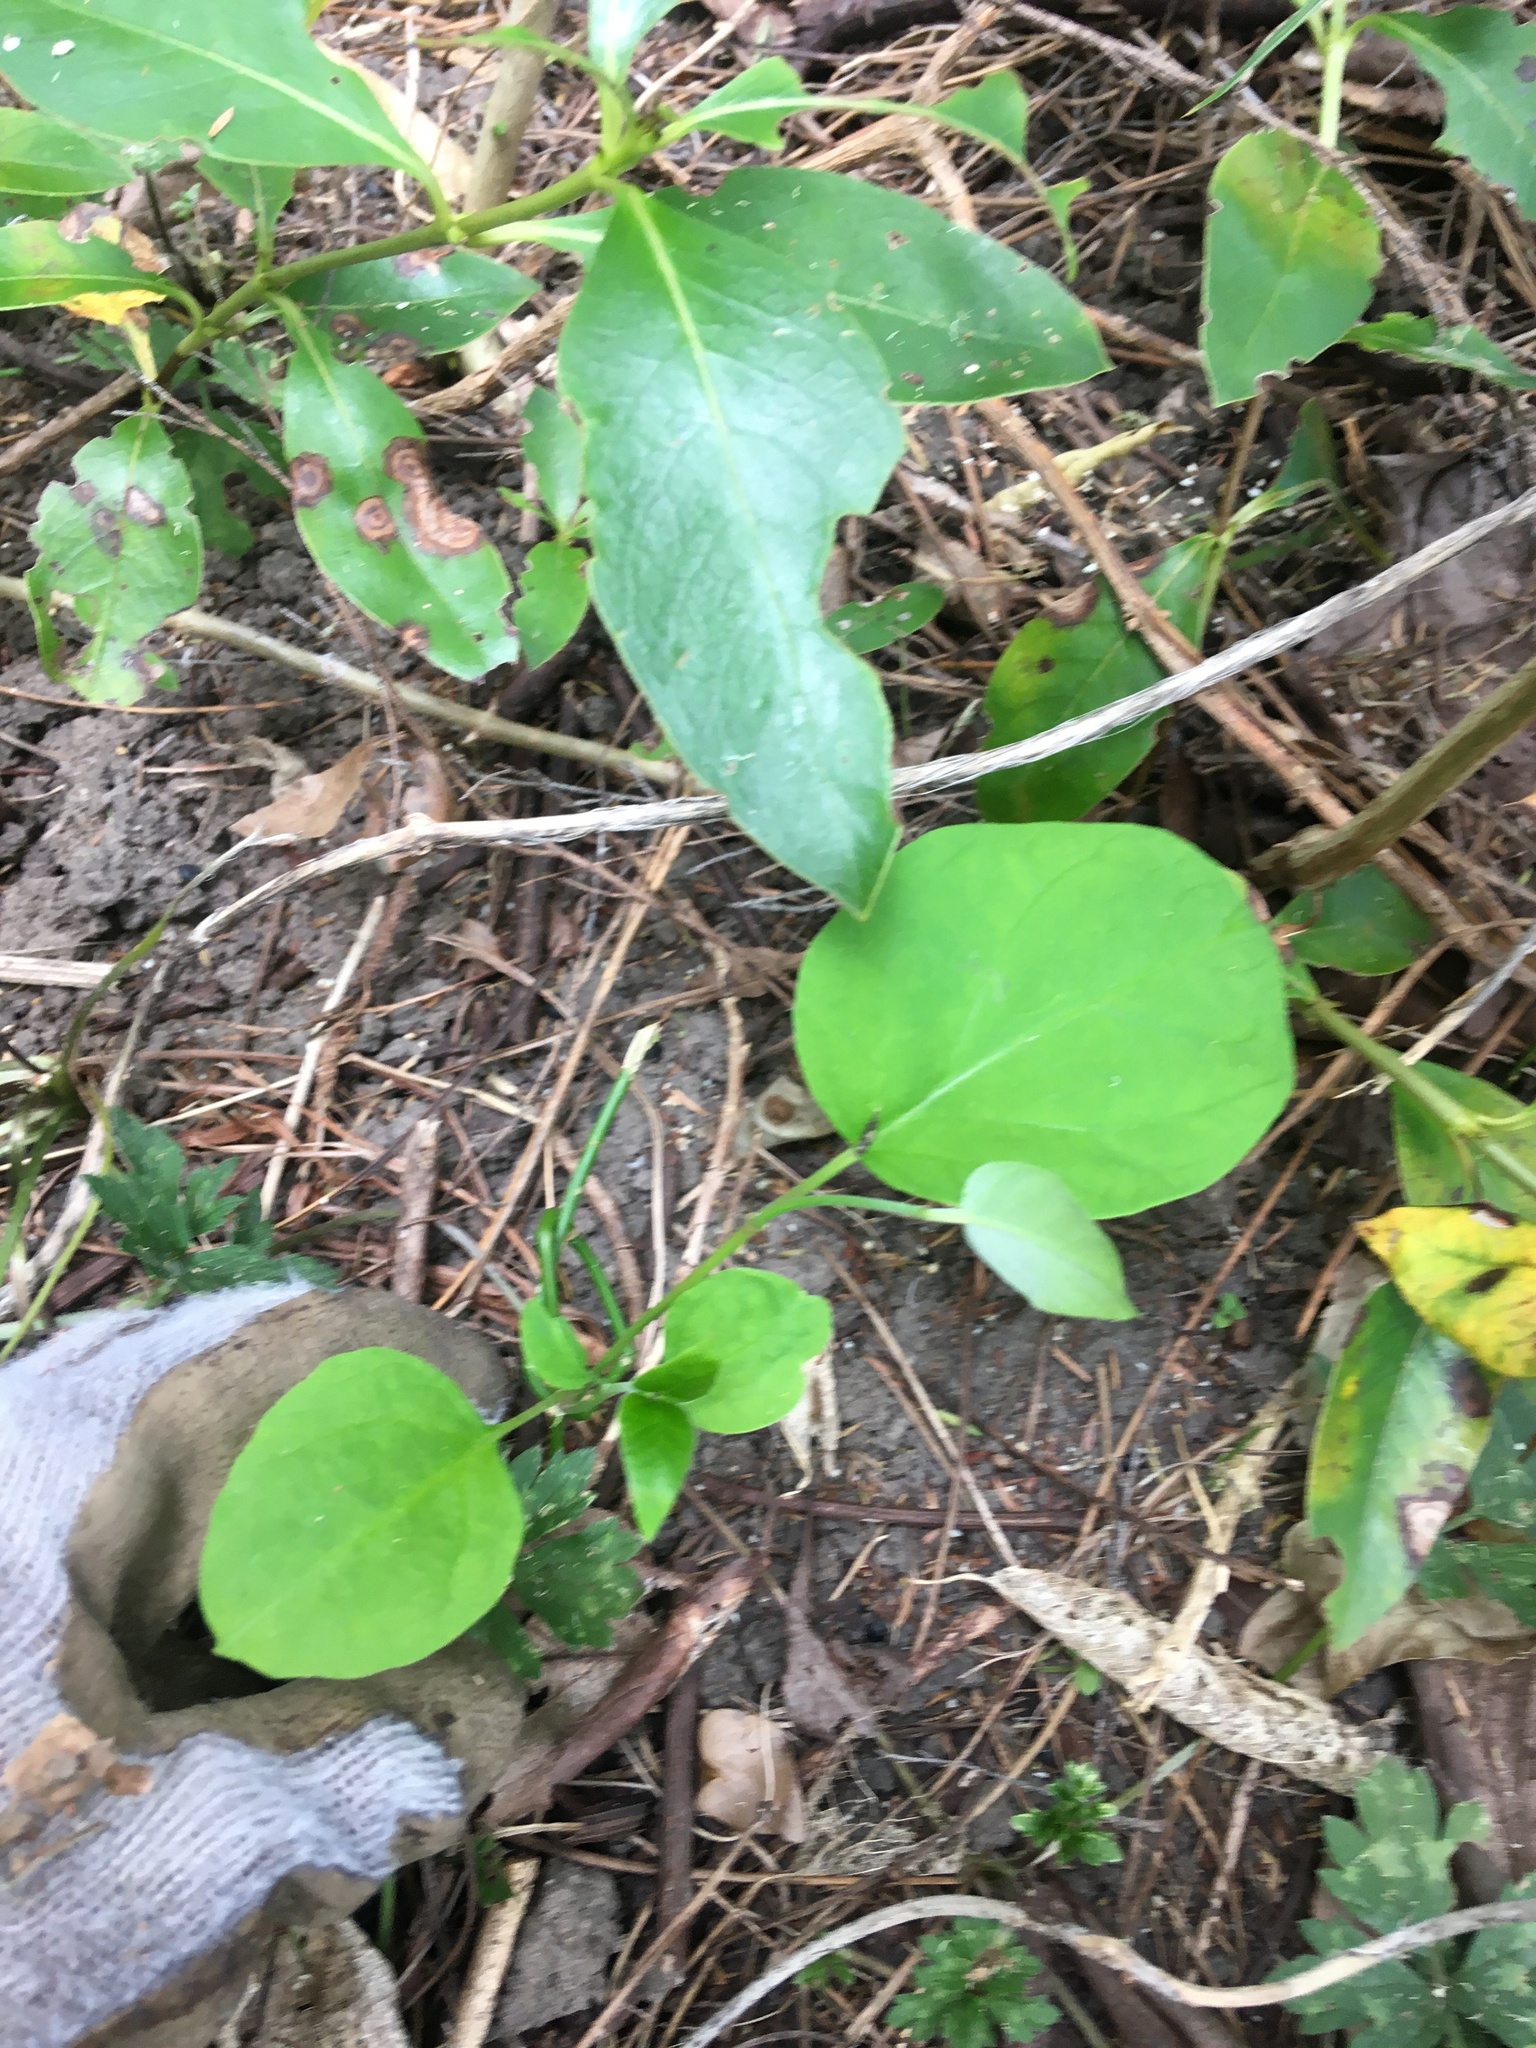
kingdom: Plantae
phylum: Tracheophyta
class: Magnoliopsida
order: Gentianales
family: Apocynaceae
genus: Araujia
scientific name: Araujia sericifera
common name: White bladderflower
